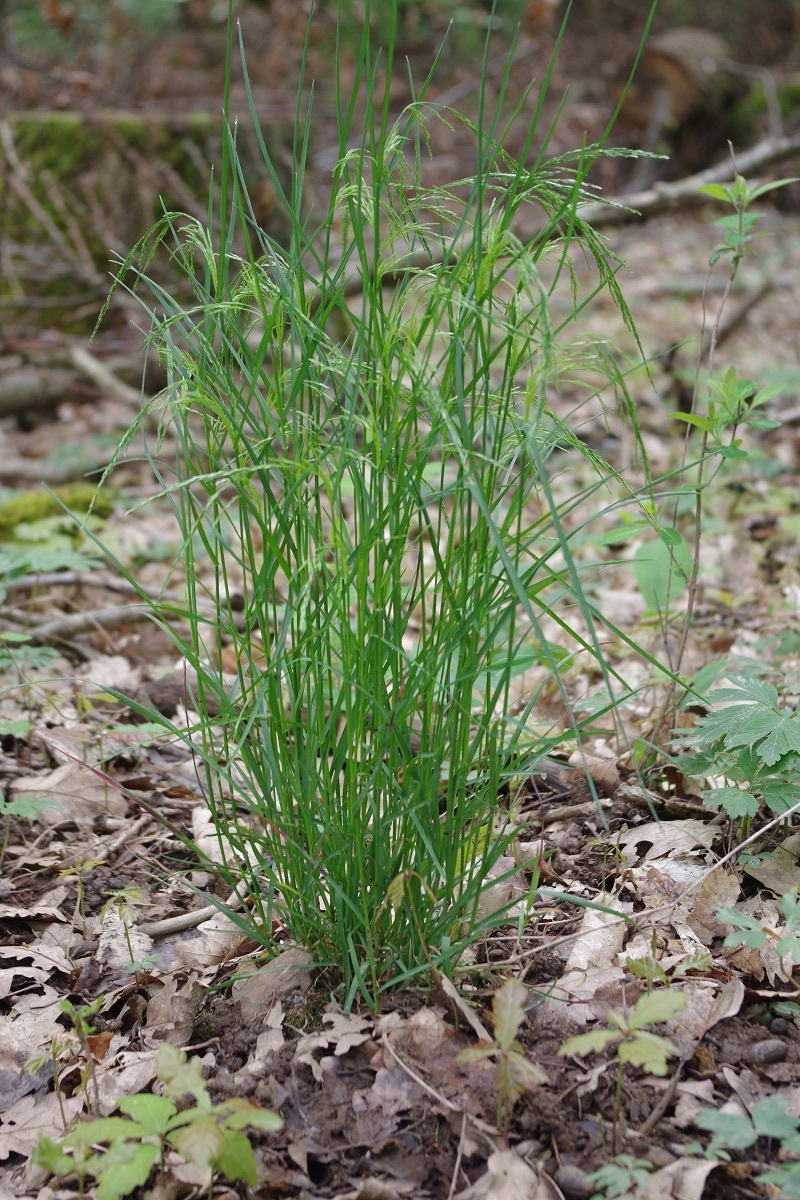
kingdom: Plantae
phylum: Tracheophyta
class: Liliopsida
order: Poales
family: Poaceae
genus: Poa
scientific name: Poa nemoralis
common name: Wood bluegrass
